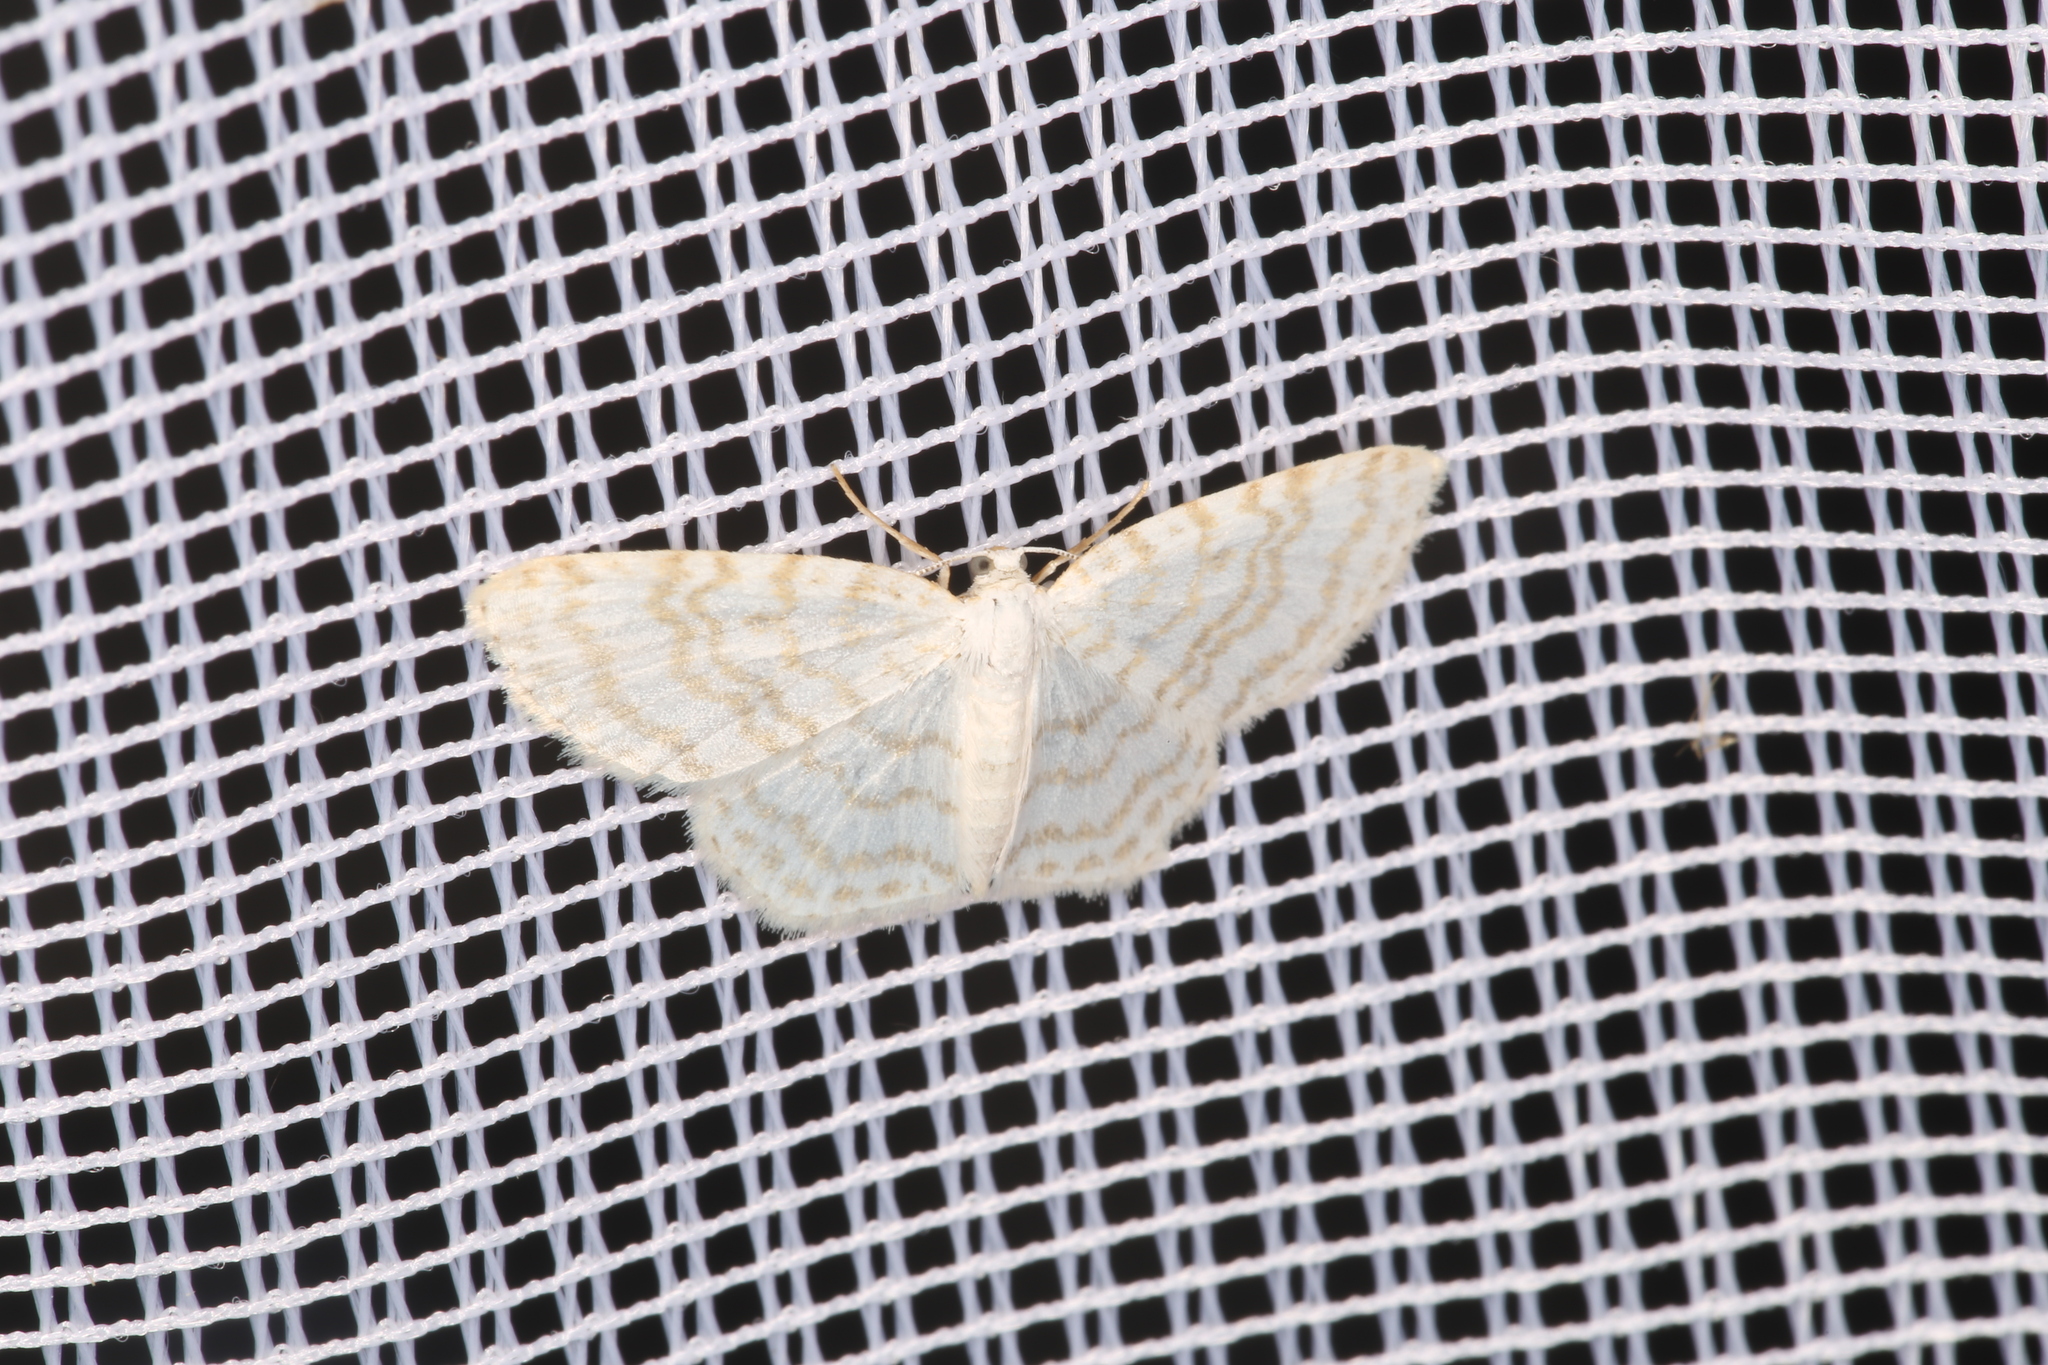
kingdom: Animalia
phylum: Arthropoda
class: Insecta
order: Lepidoptera
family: Geometridae
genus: Asthena
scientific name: Asthena albulata
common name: Small white wave
